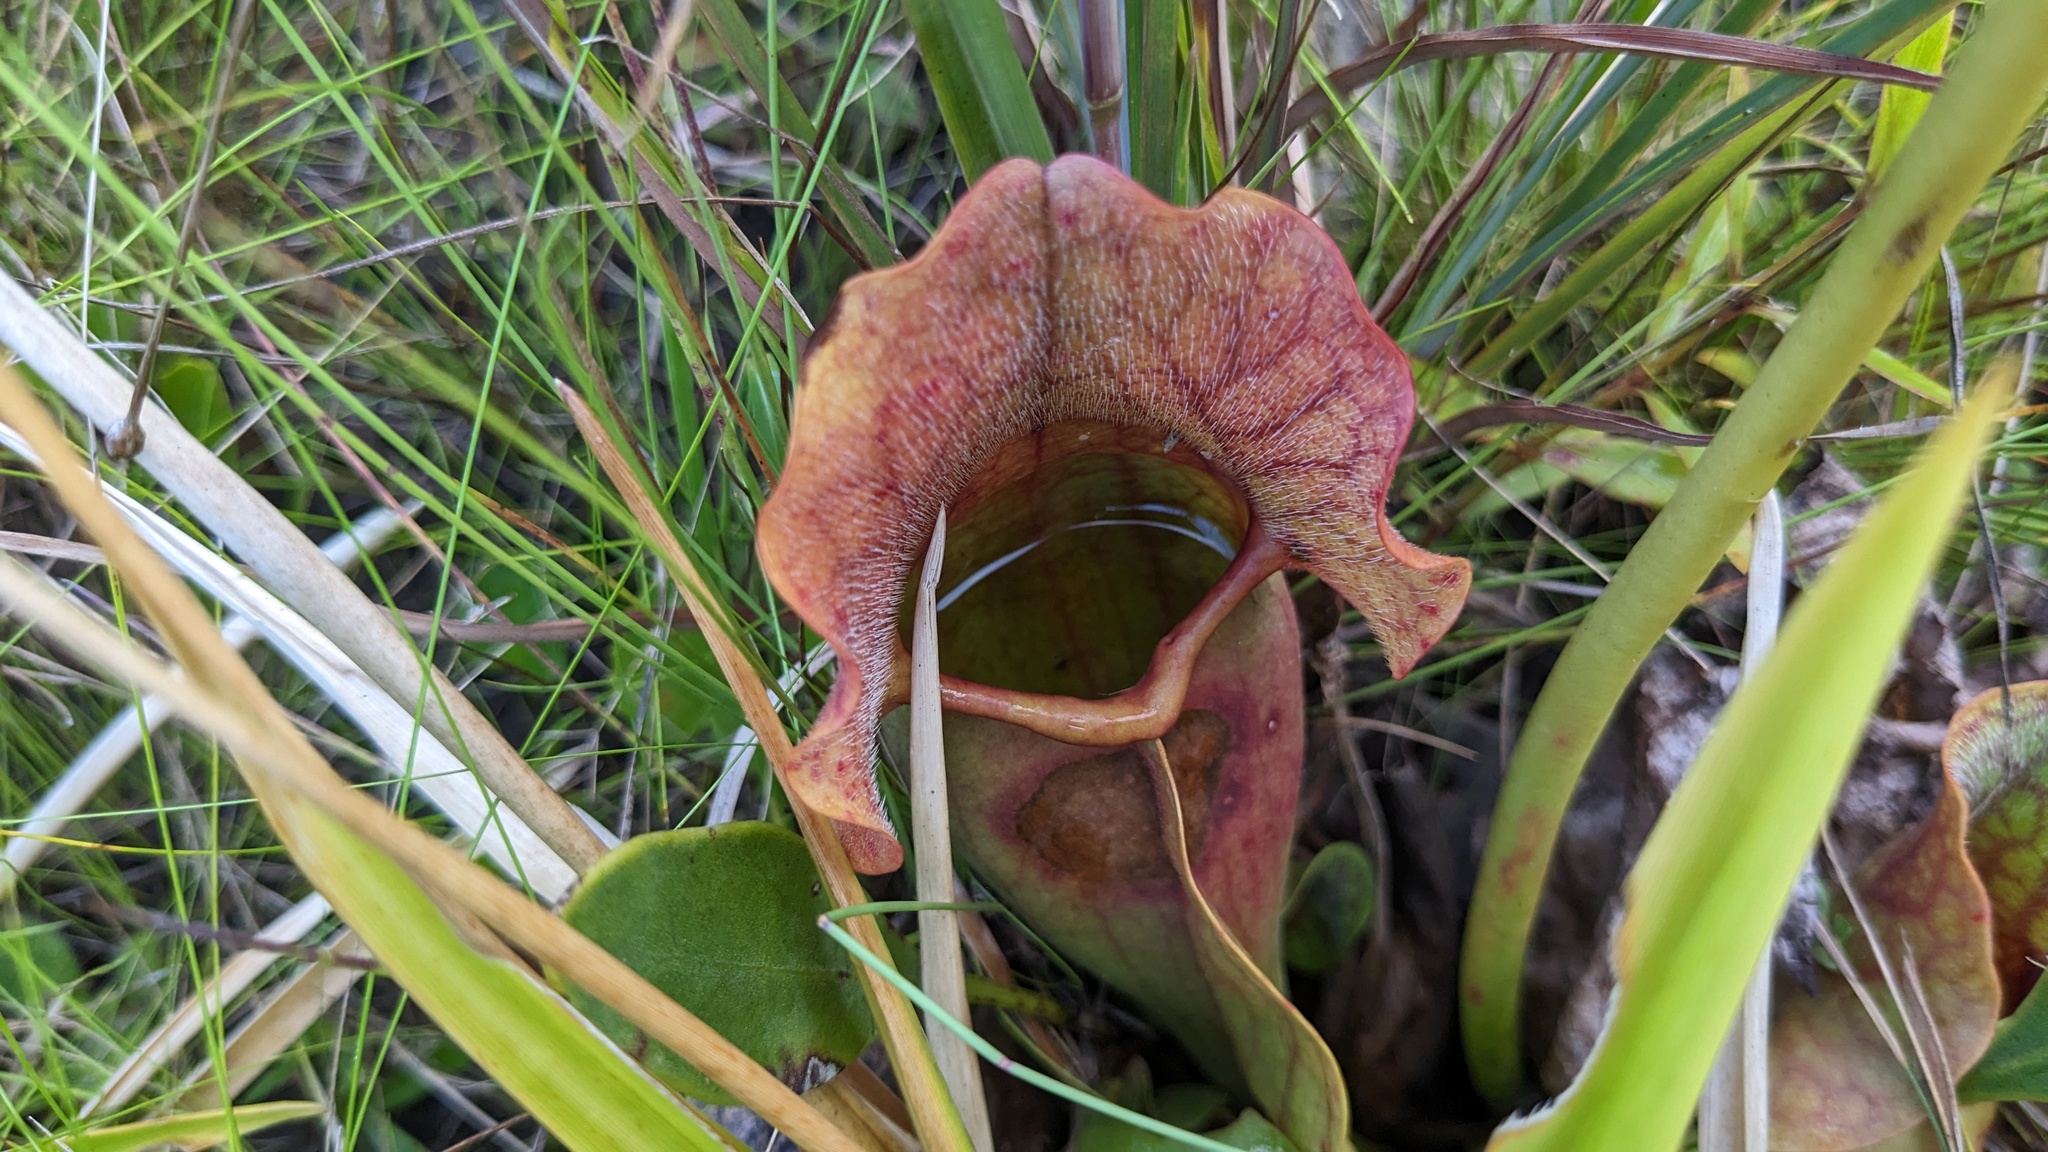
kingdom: Plantae
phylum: Tracheophyta
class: Magnoliopsida
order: Ericales
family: Sarraceniaceae
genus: Sarracenia
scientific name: Sarracenia rosea
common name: Pink pitcherplant
